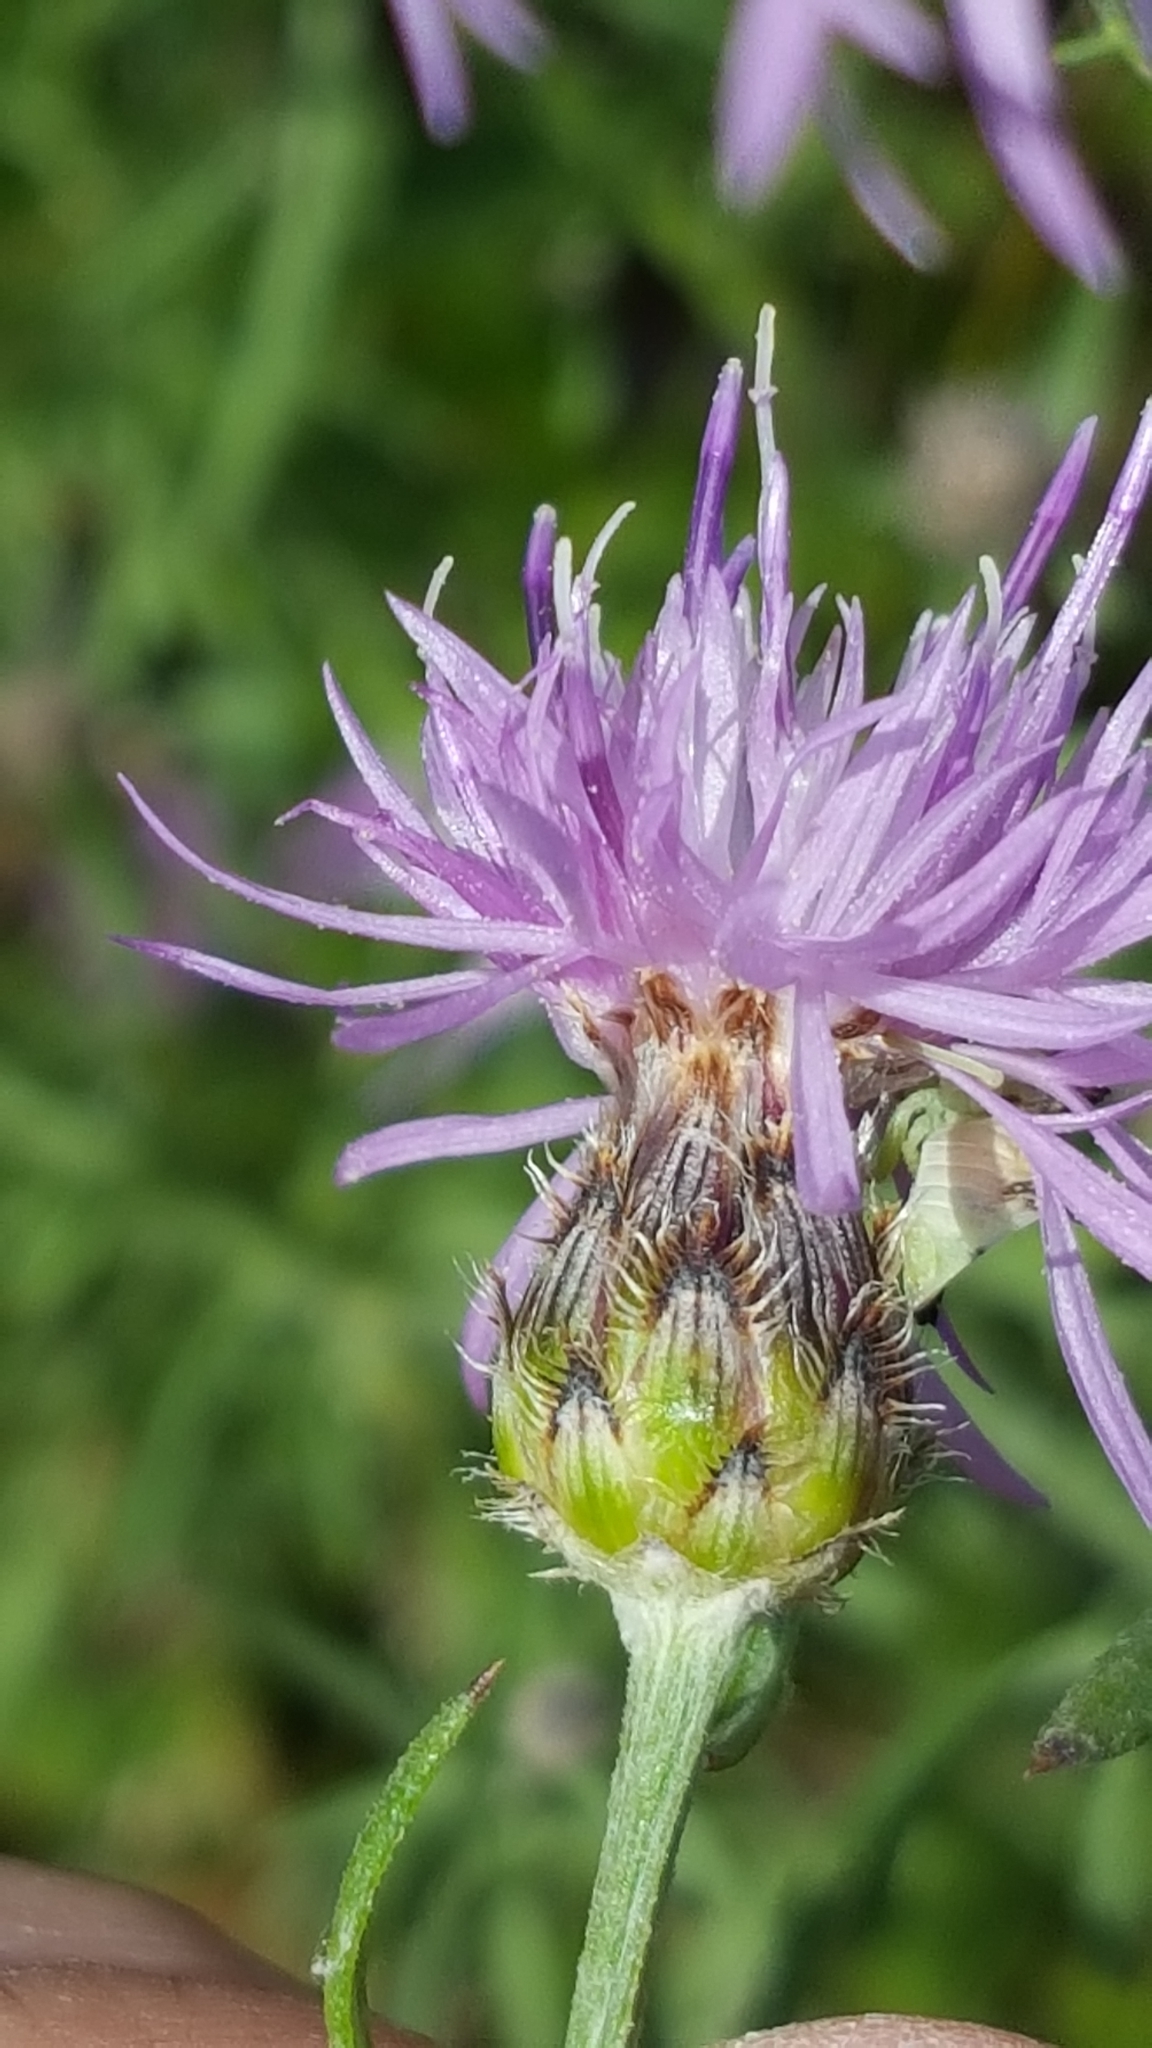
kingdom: Plantae
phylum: Tracheophyta
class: Magnoliopsida
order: Asterales
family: Asteraceae
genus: Centaurea
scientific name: Centaurea stoebe
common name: Spotted knapweed
